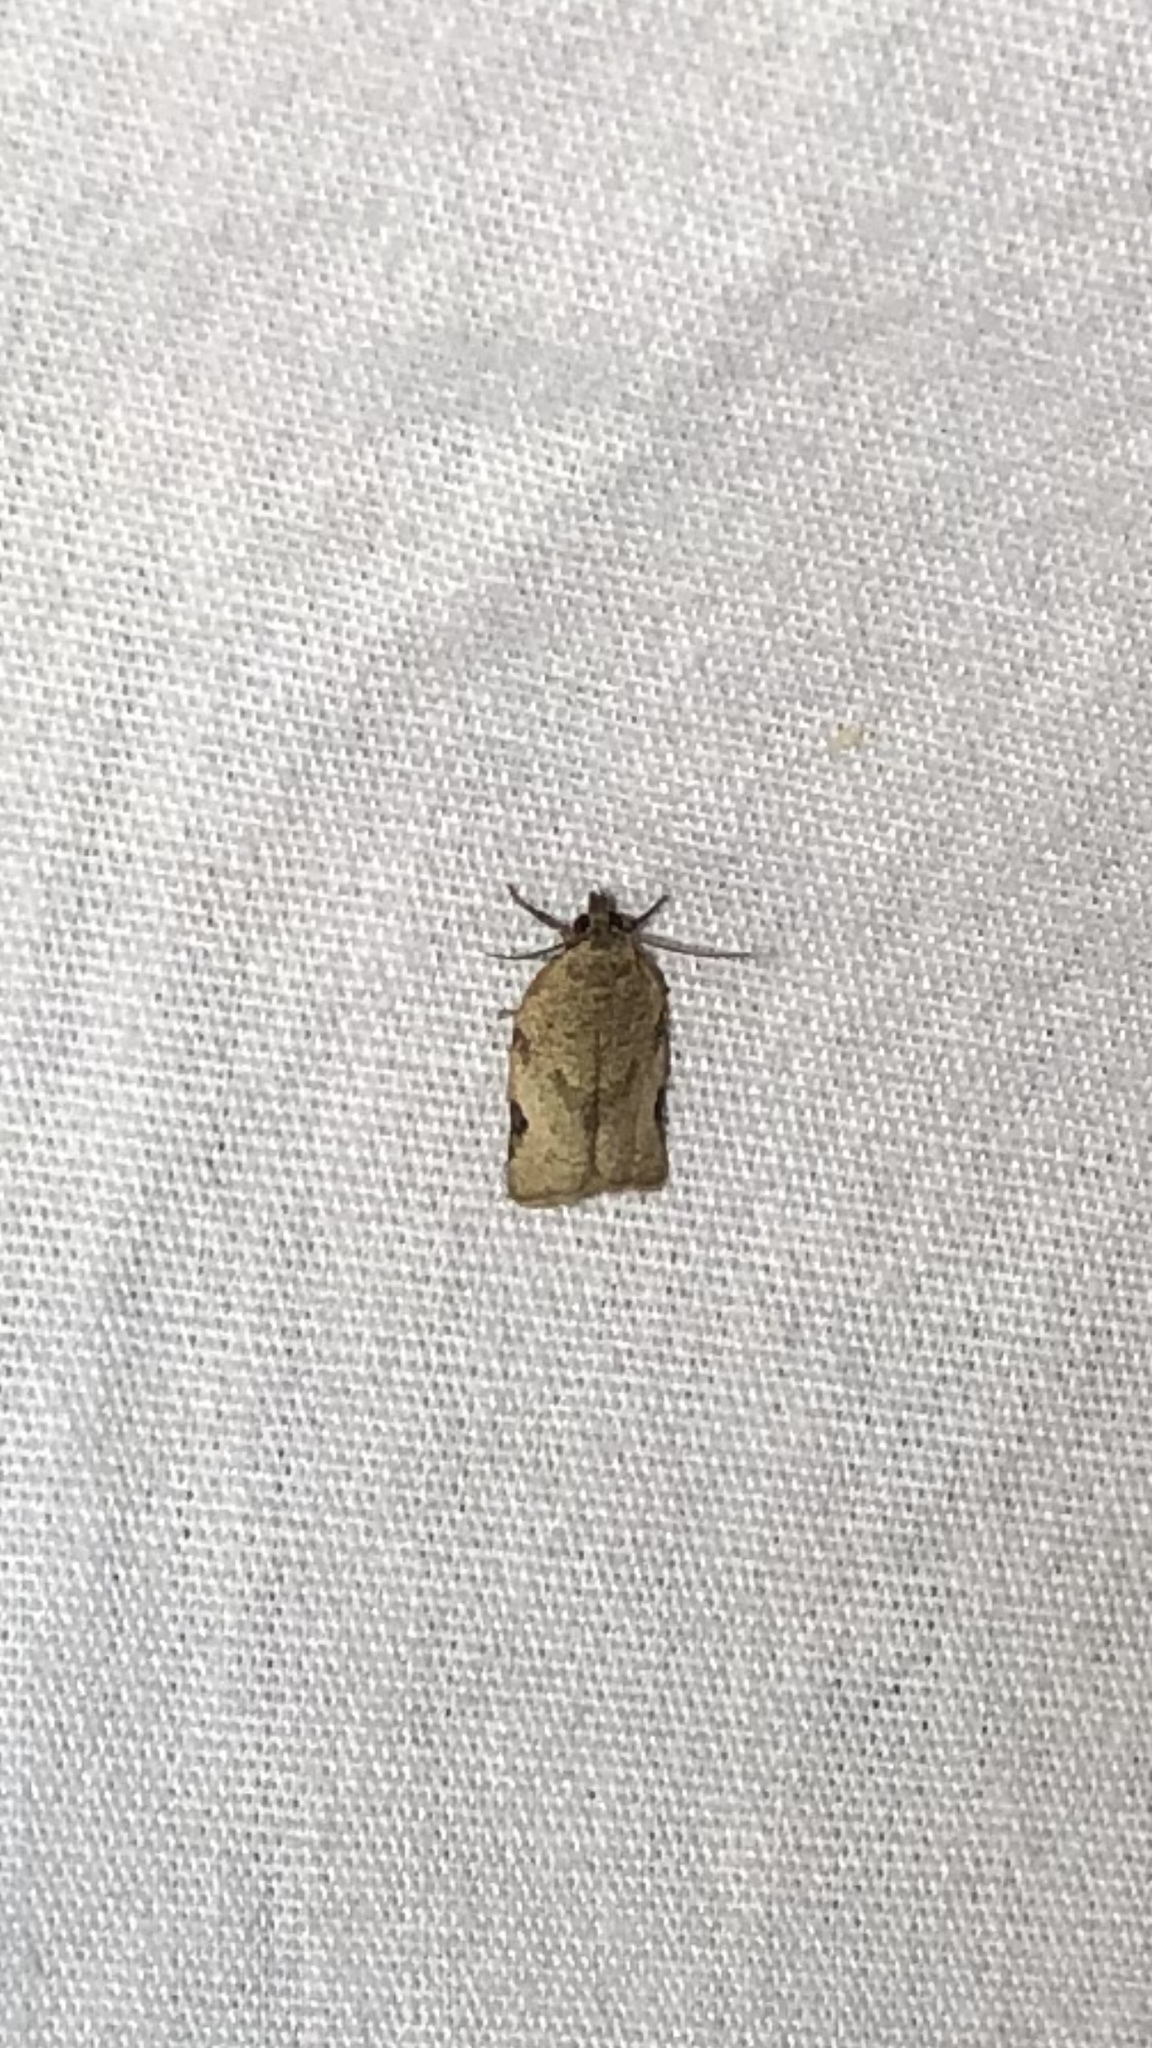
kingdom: Animalia
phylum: Arthropoda
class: Insecta
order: Lepidoptera
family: Tortricidae
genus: Clepsis
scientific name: Clepsis virescana
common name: Greenish apple moth
